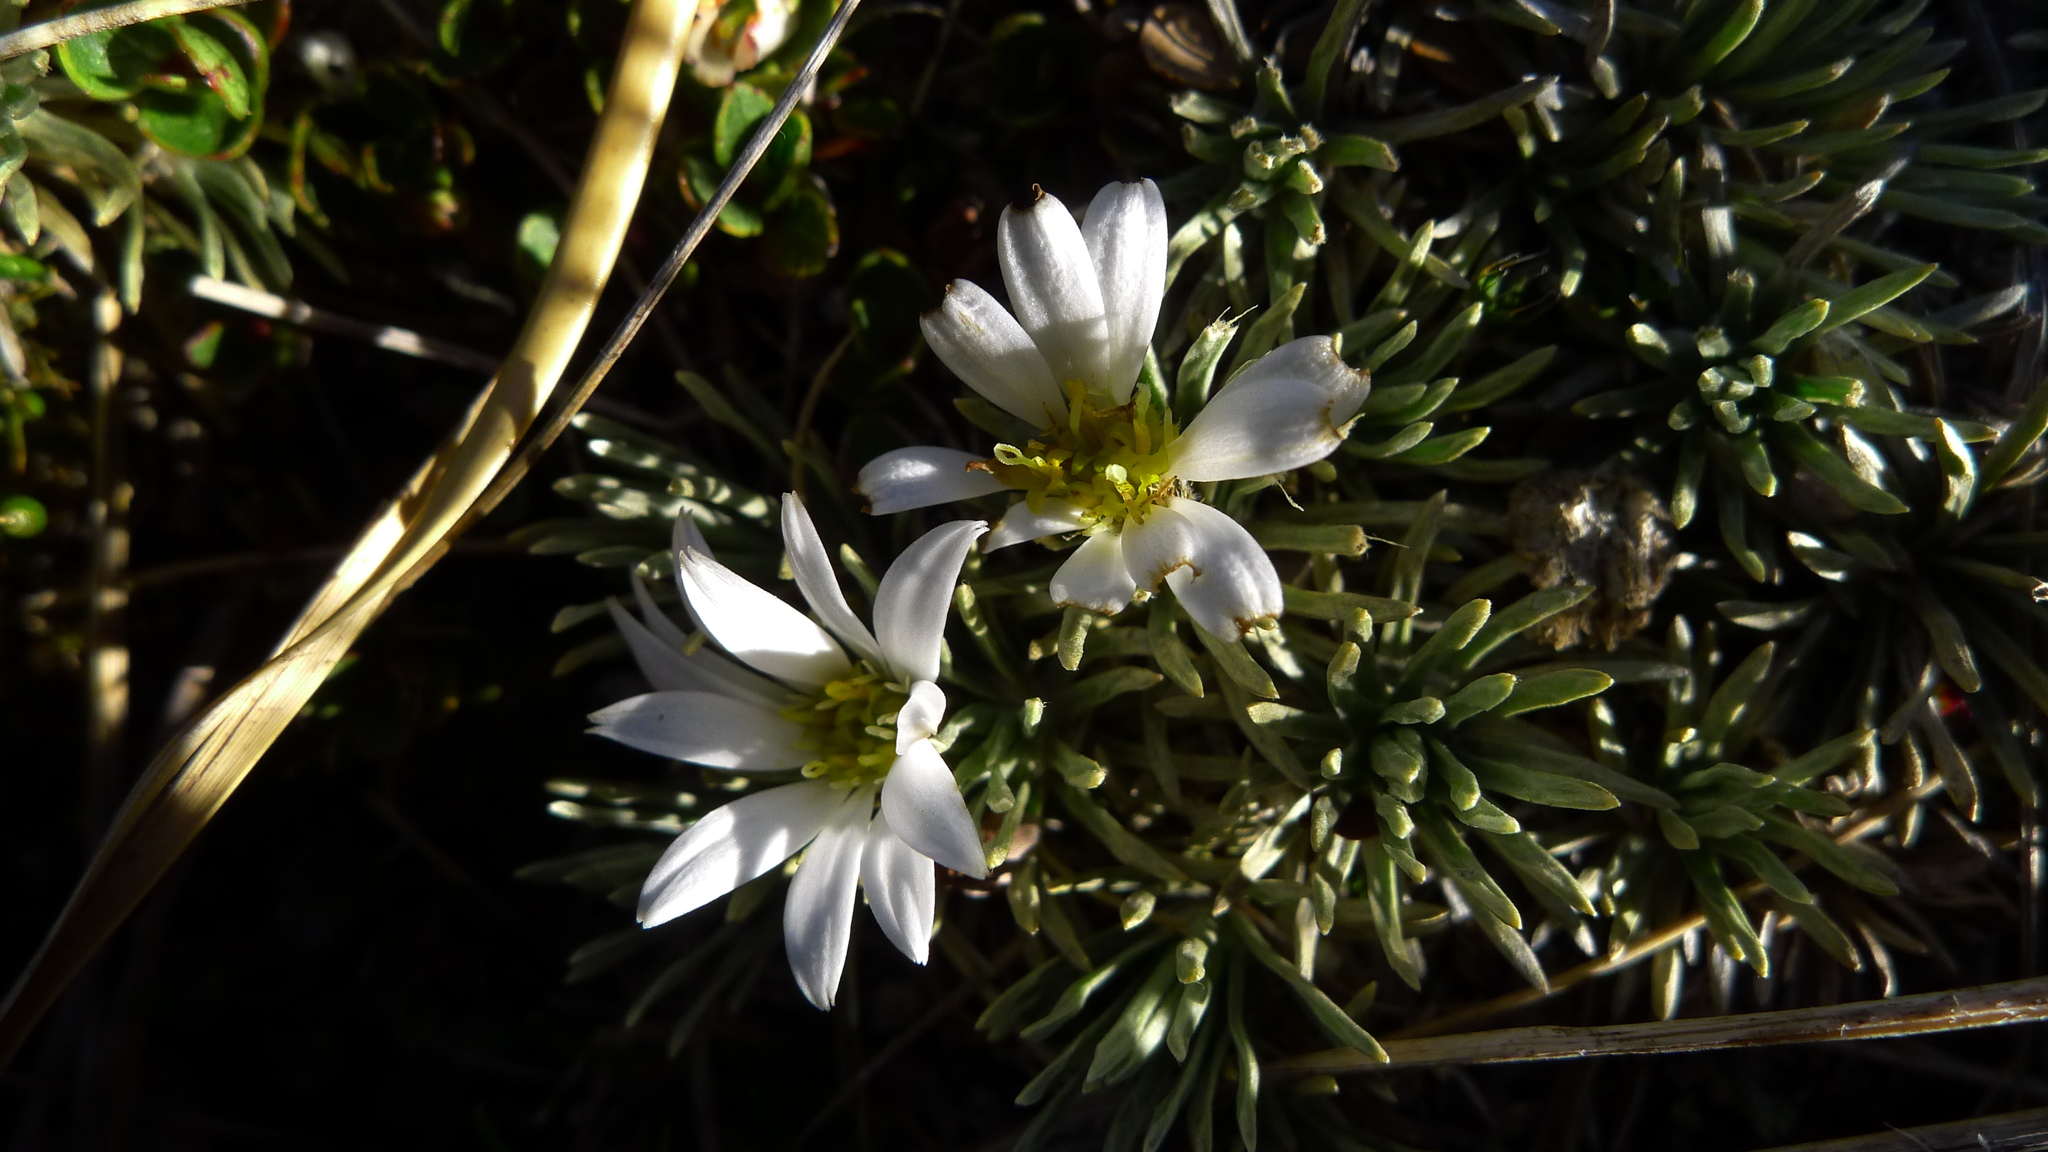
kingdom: Plantae
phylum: Tracheophyta
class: Magnoliopsida
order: Asterales
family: Asteraceae
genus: Celmisia
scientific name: Celmisia sessiliflora
